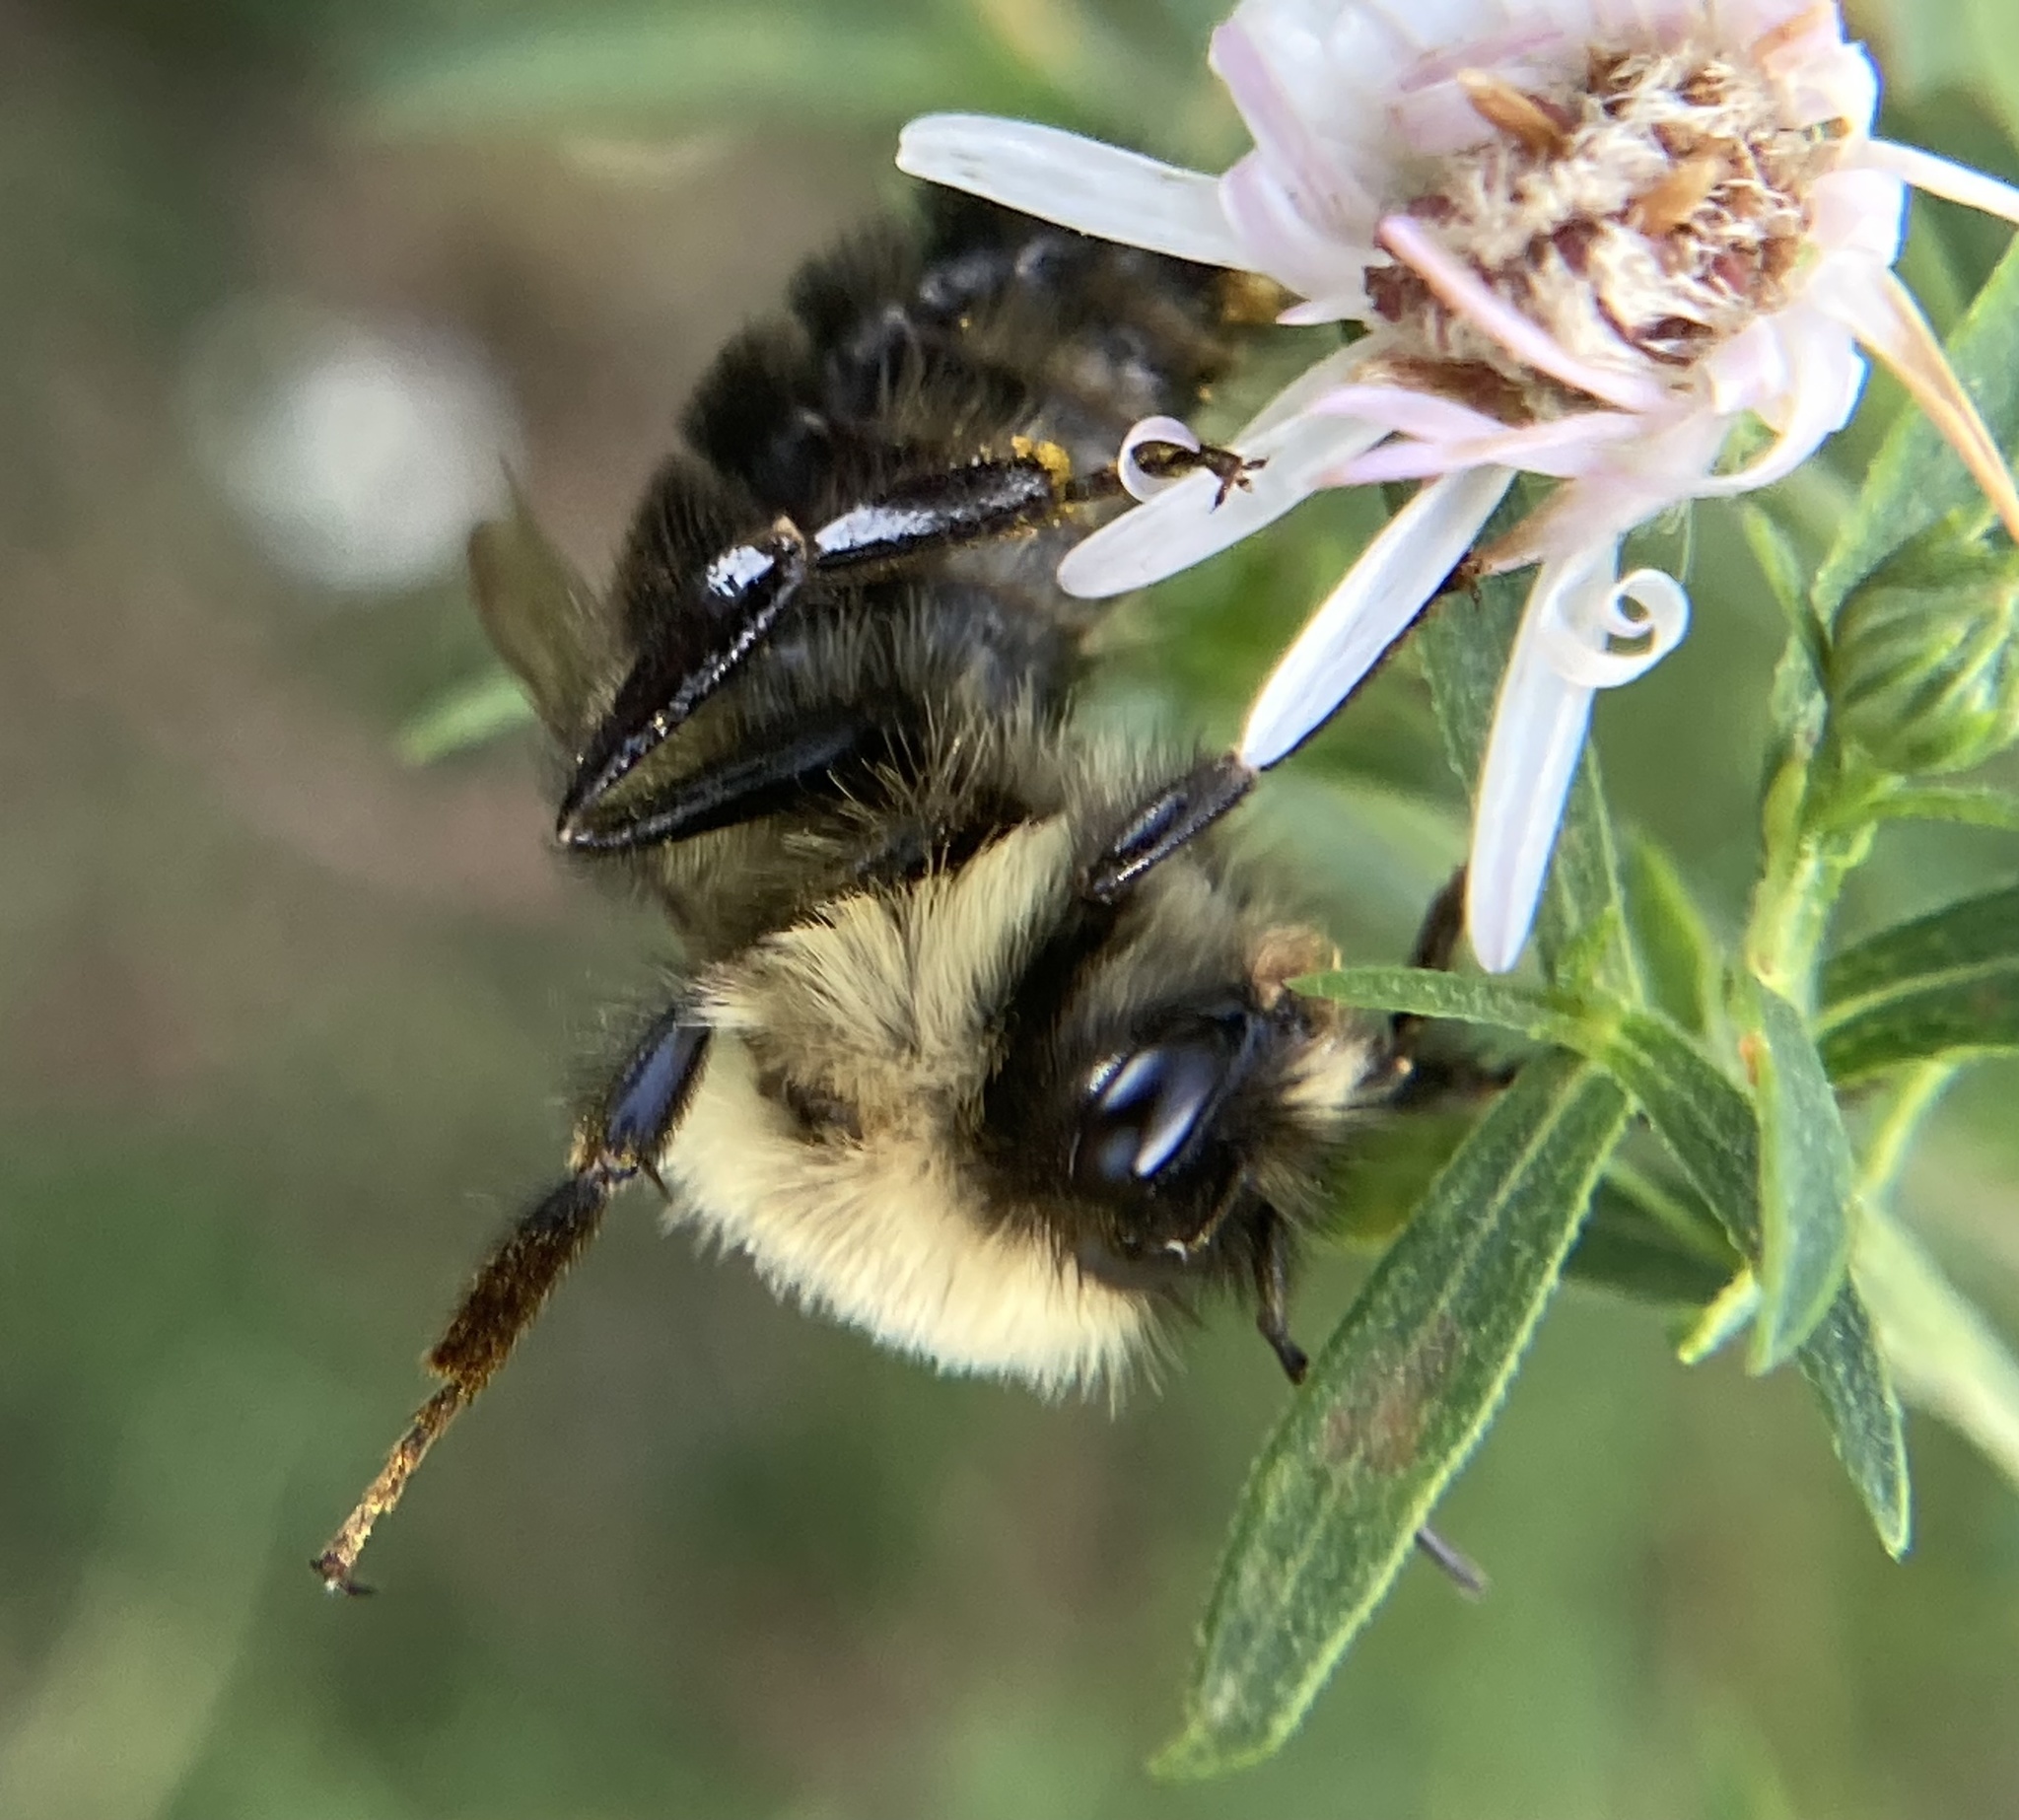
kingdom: Animalia
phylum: Arthropoda
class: Insecta
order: Hymenoptera
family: Apidae
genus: Bombus
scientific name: Bombus impatiens
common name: Common eastern bumble bee
